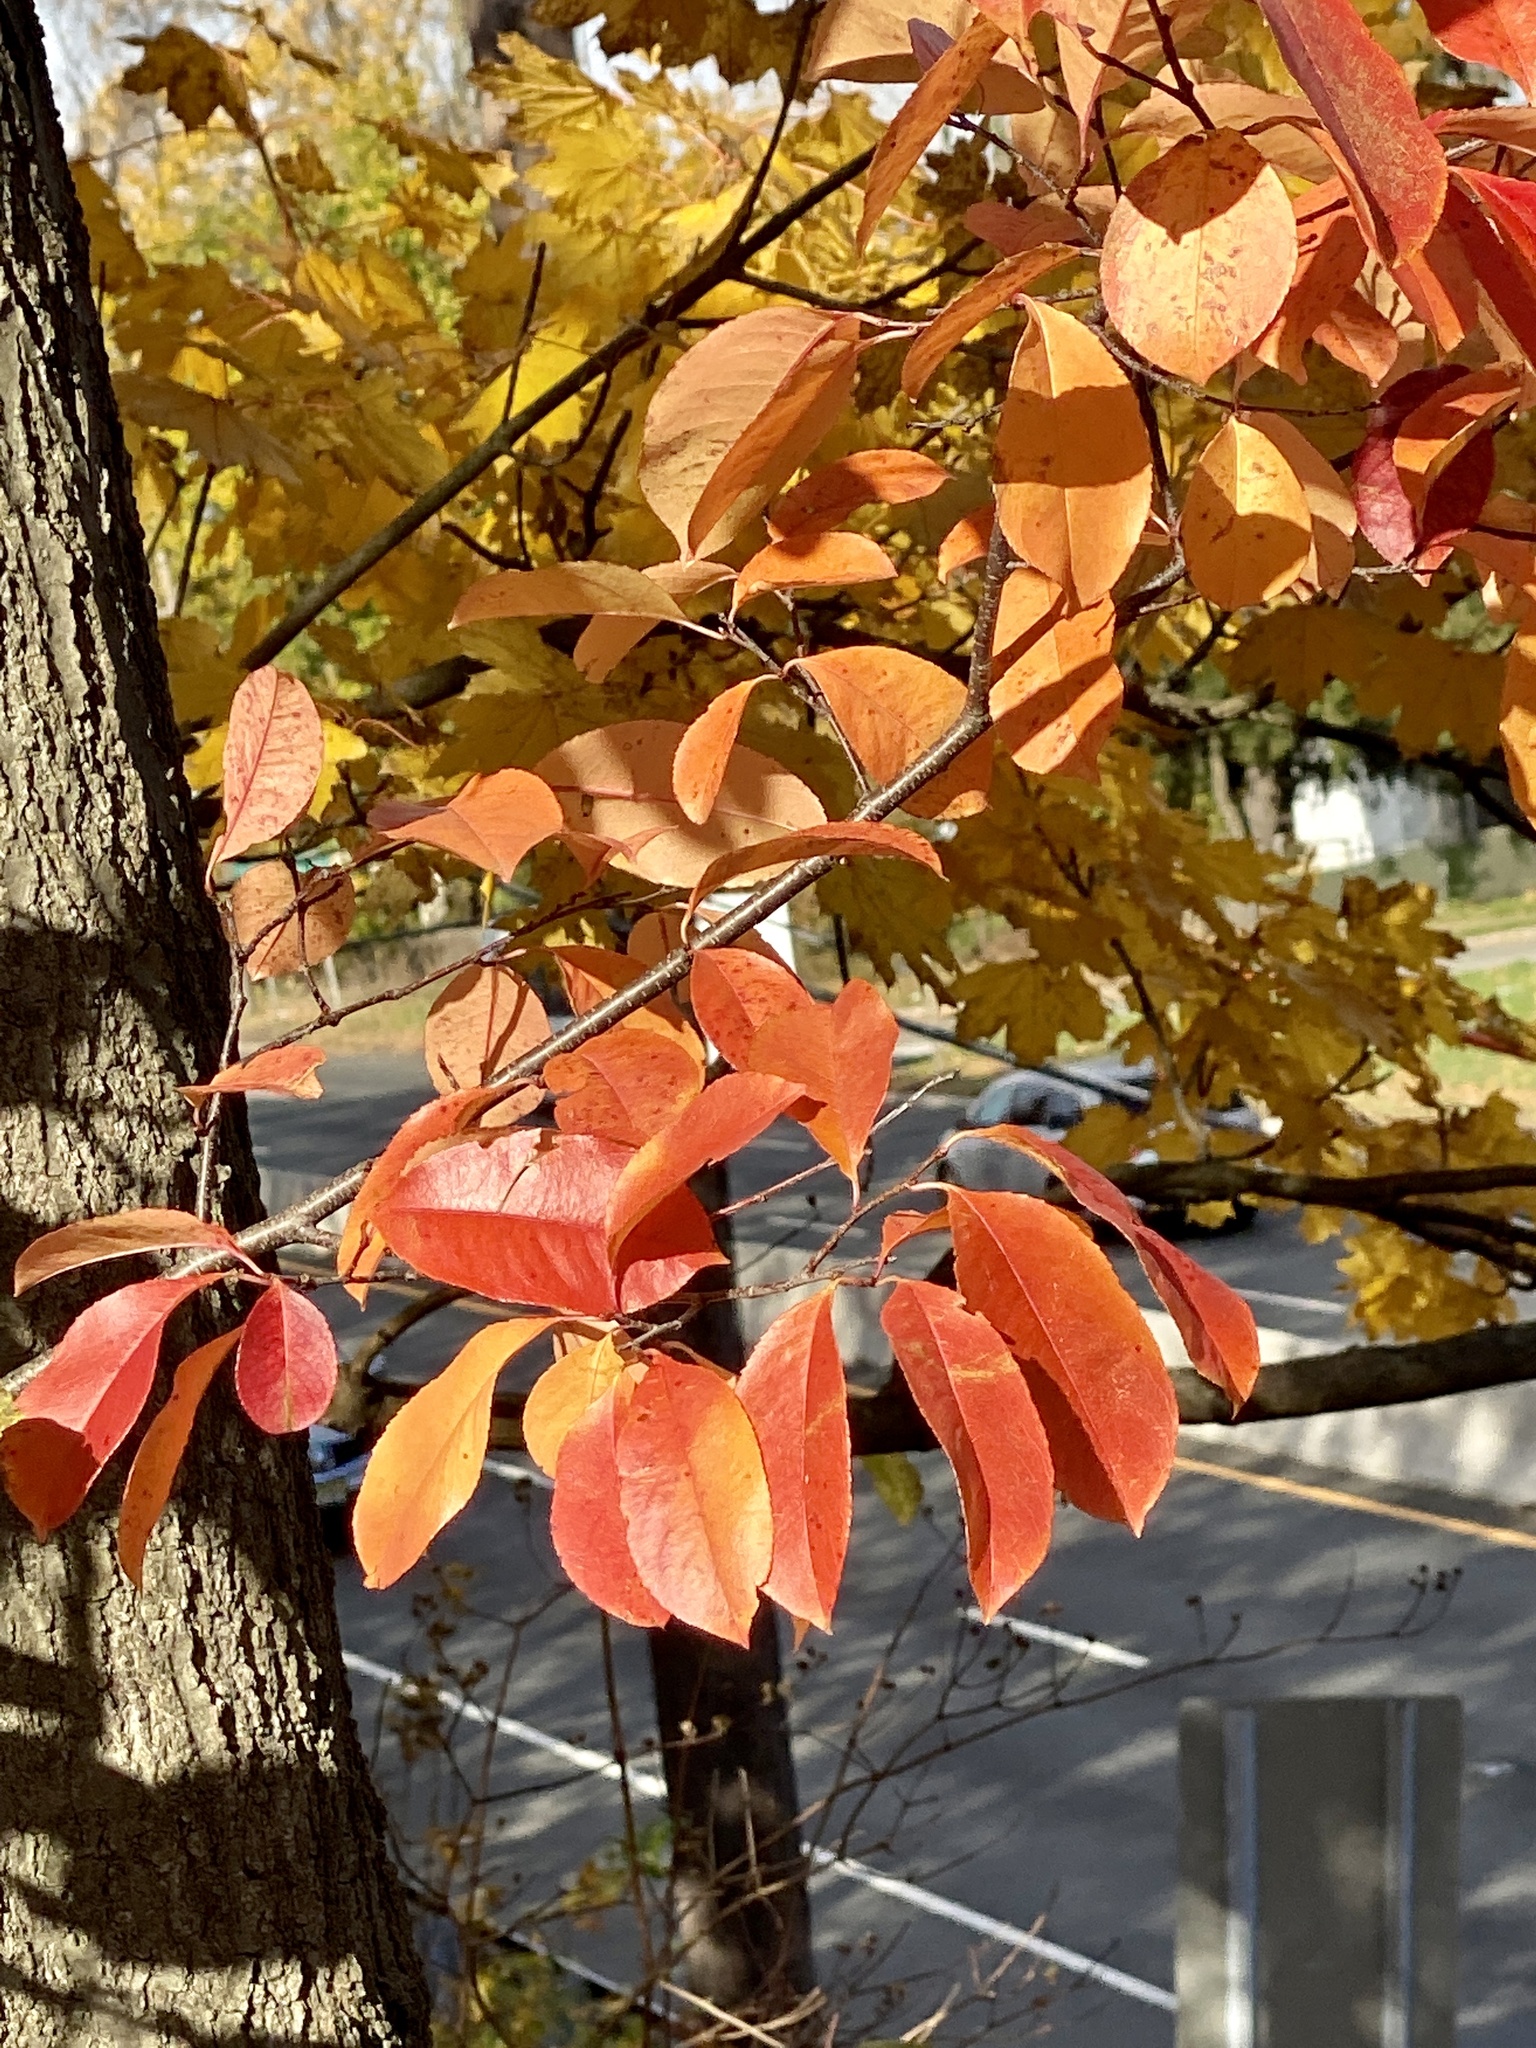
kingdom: Plantae
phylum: Tracheophyta
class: Magnoliopsida
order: Rosales
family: Rosaceae
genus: Prunus
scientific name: Prunus serotina
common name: Black cherry
